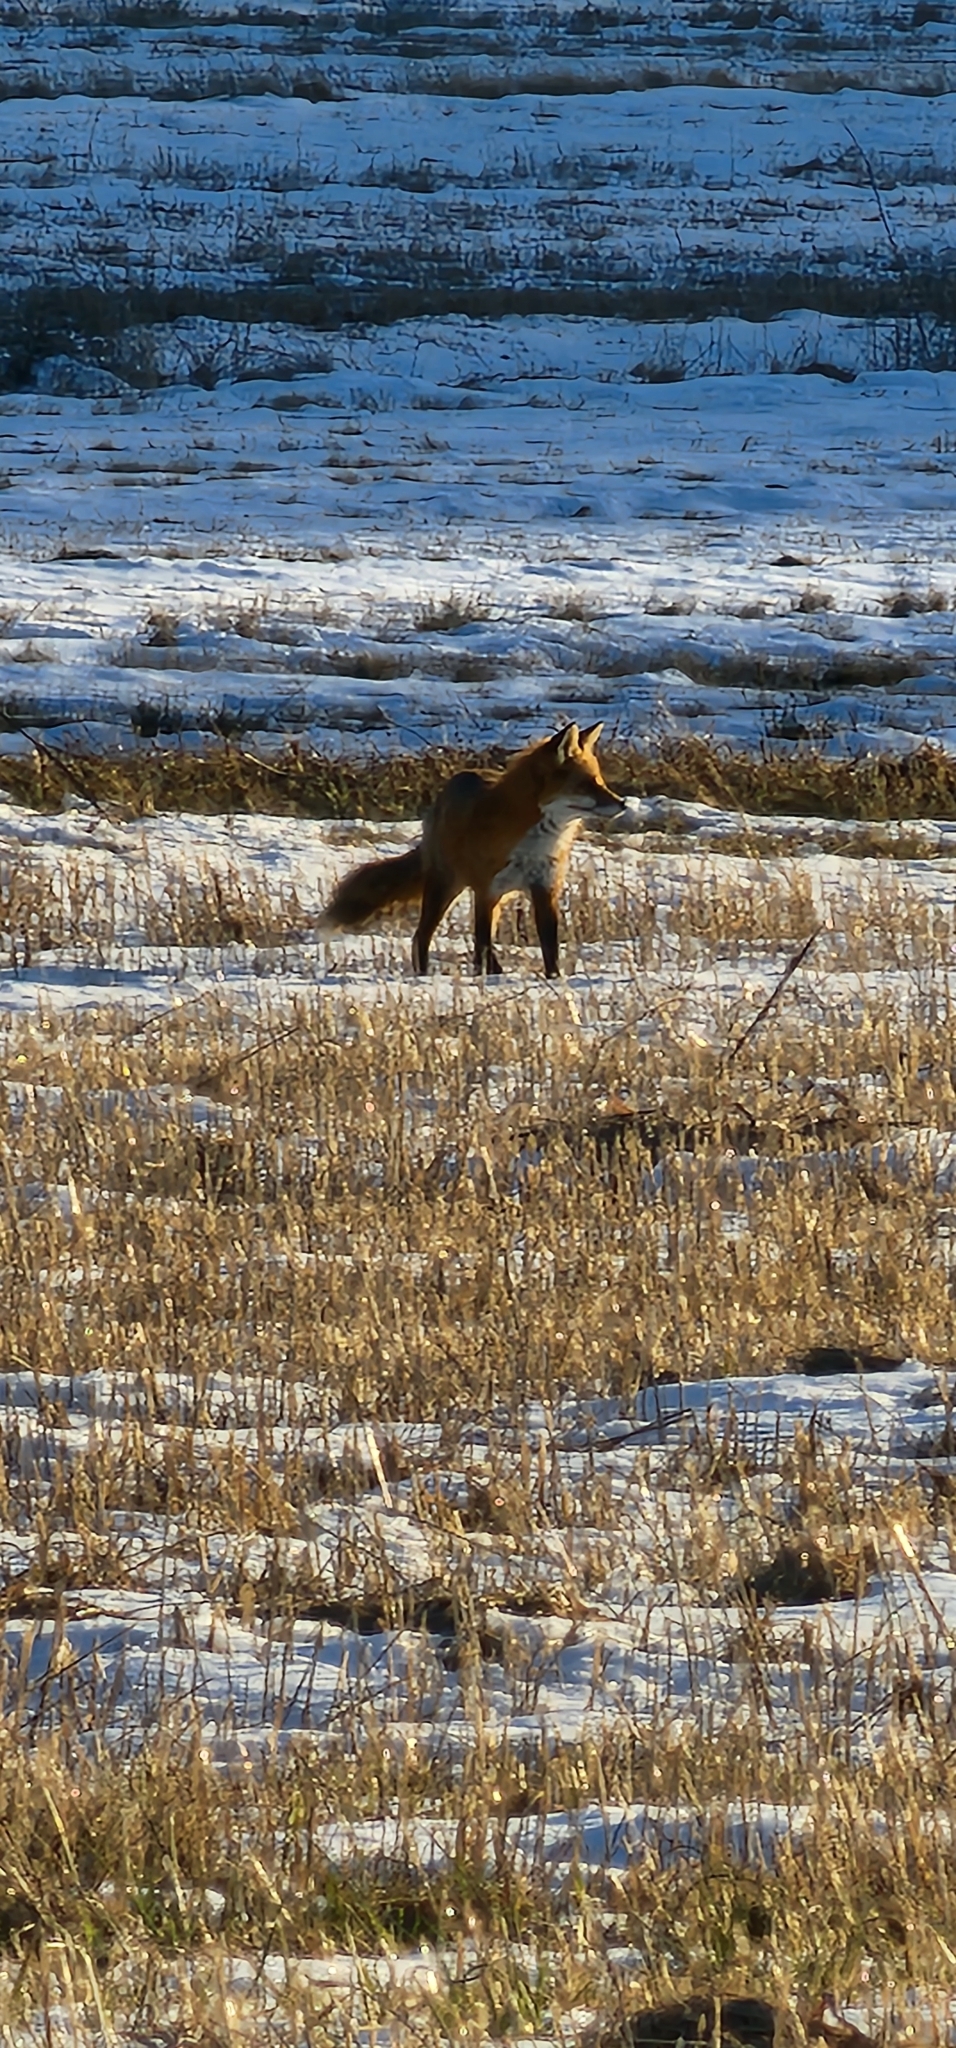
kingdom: Animalia
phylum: Chordata
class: Mammalia
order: Carnivora
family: Canidae
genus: Vulpes
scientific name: Vulpes vulpes
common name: Red fox
